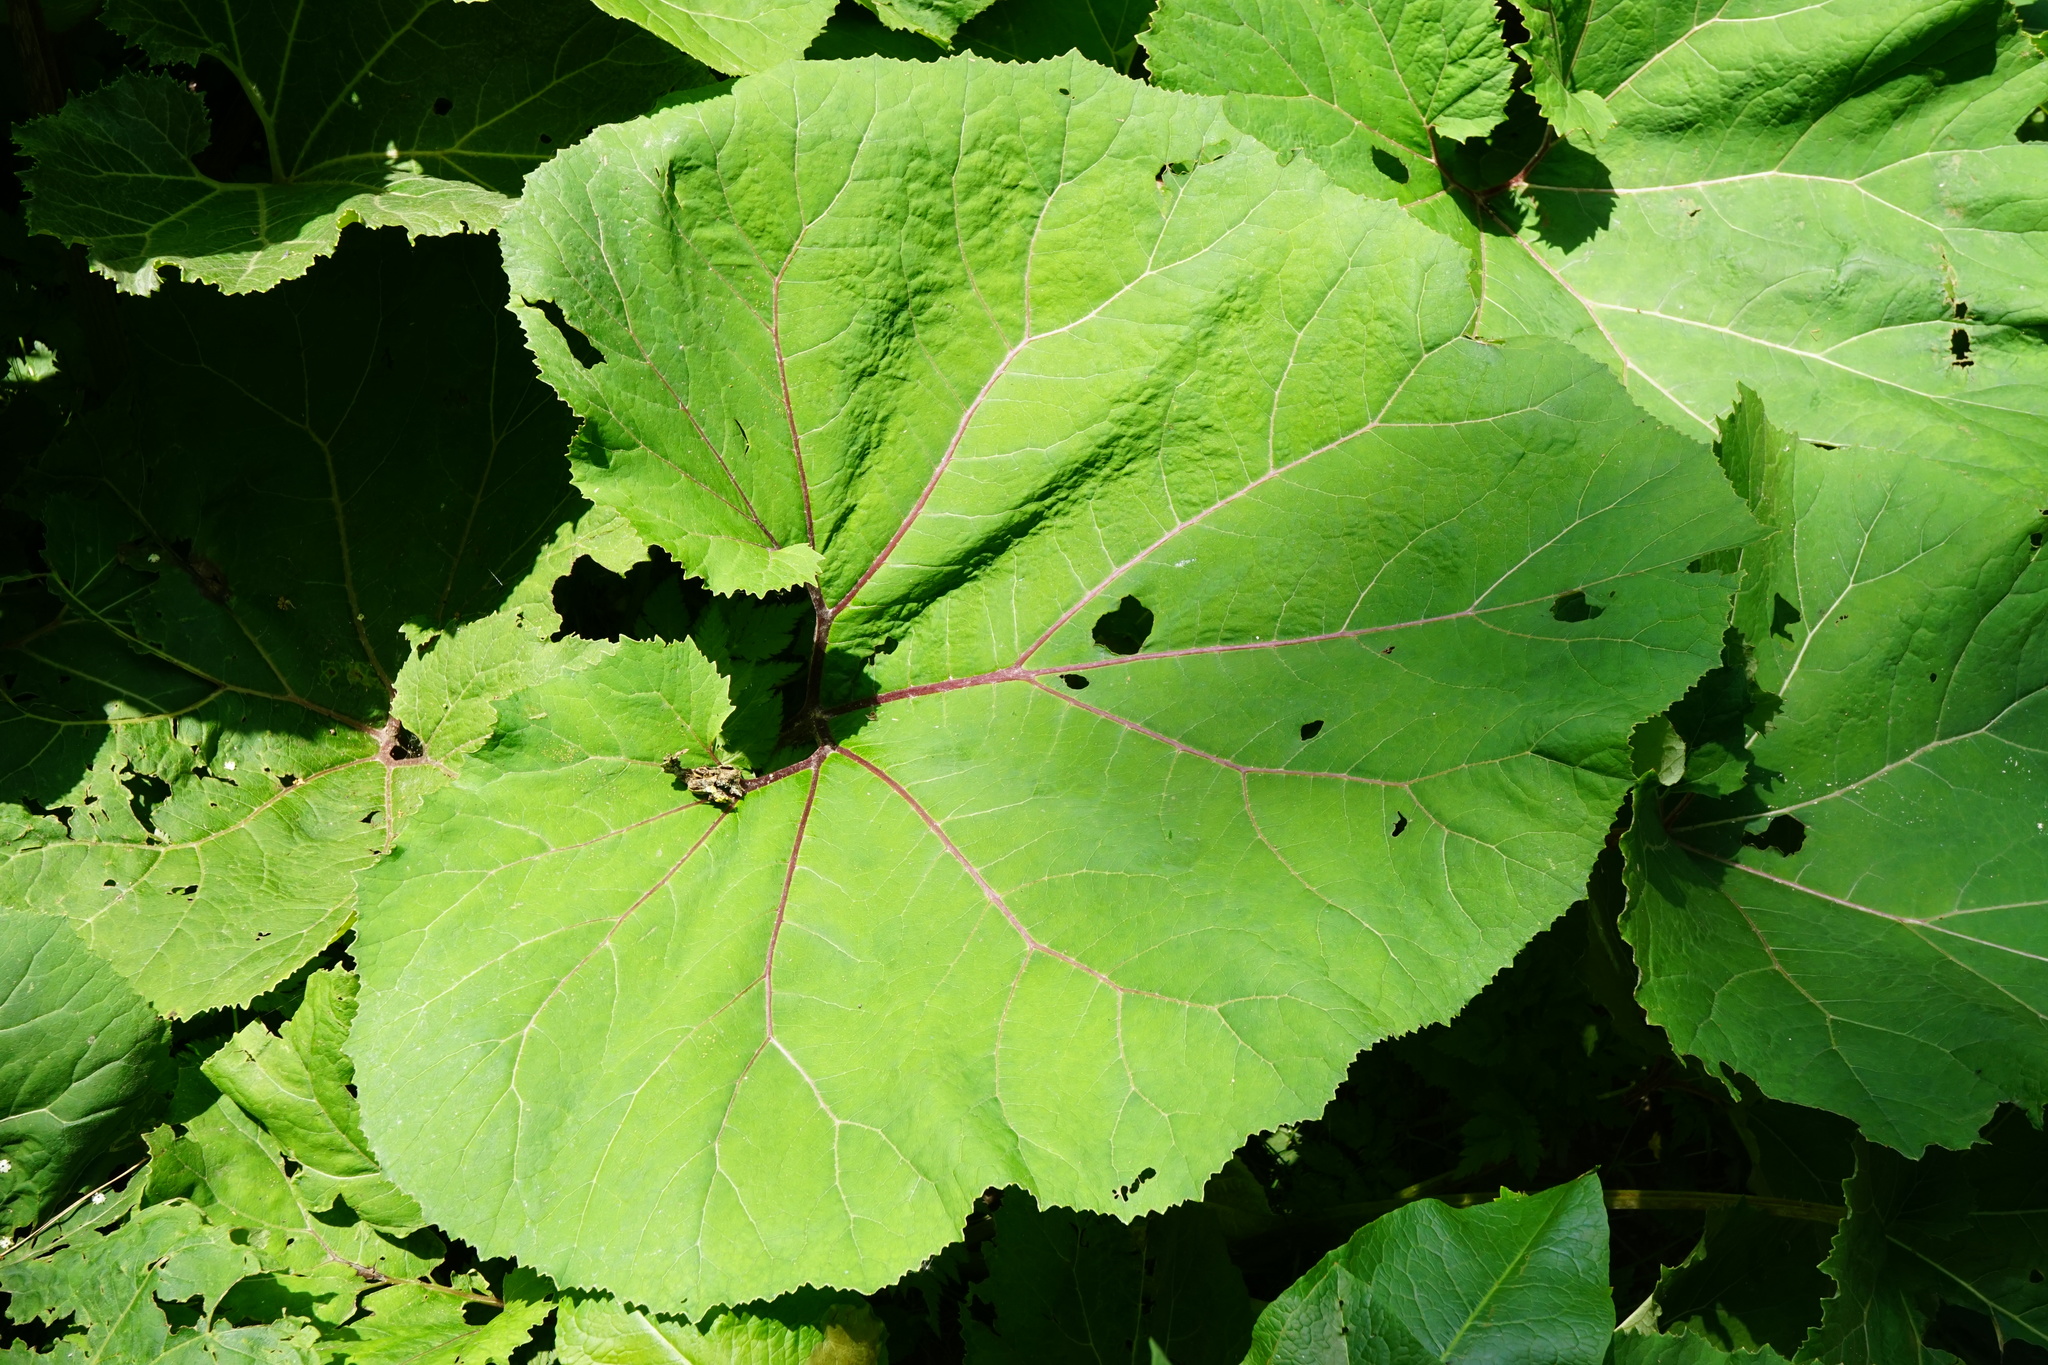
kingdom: Plantae
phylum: Tracheophyta
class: Magnoliopsida
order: Asterales
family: Asteraceae
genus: Petasites
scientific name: Petasites hybridus
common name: Butterbur
